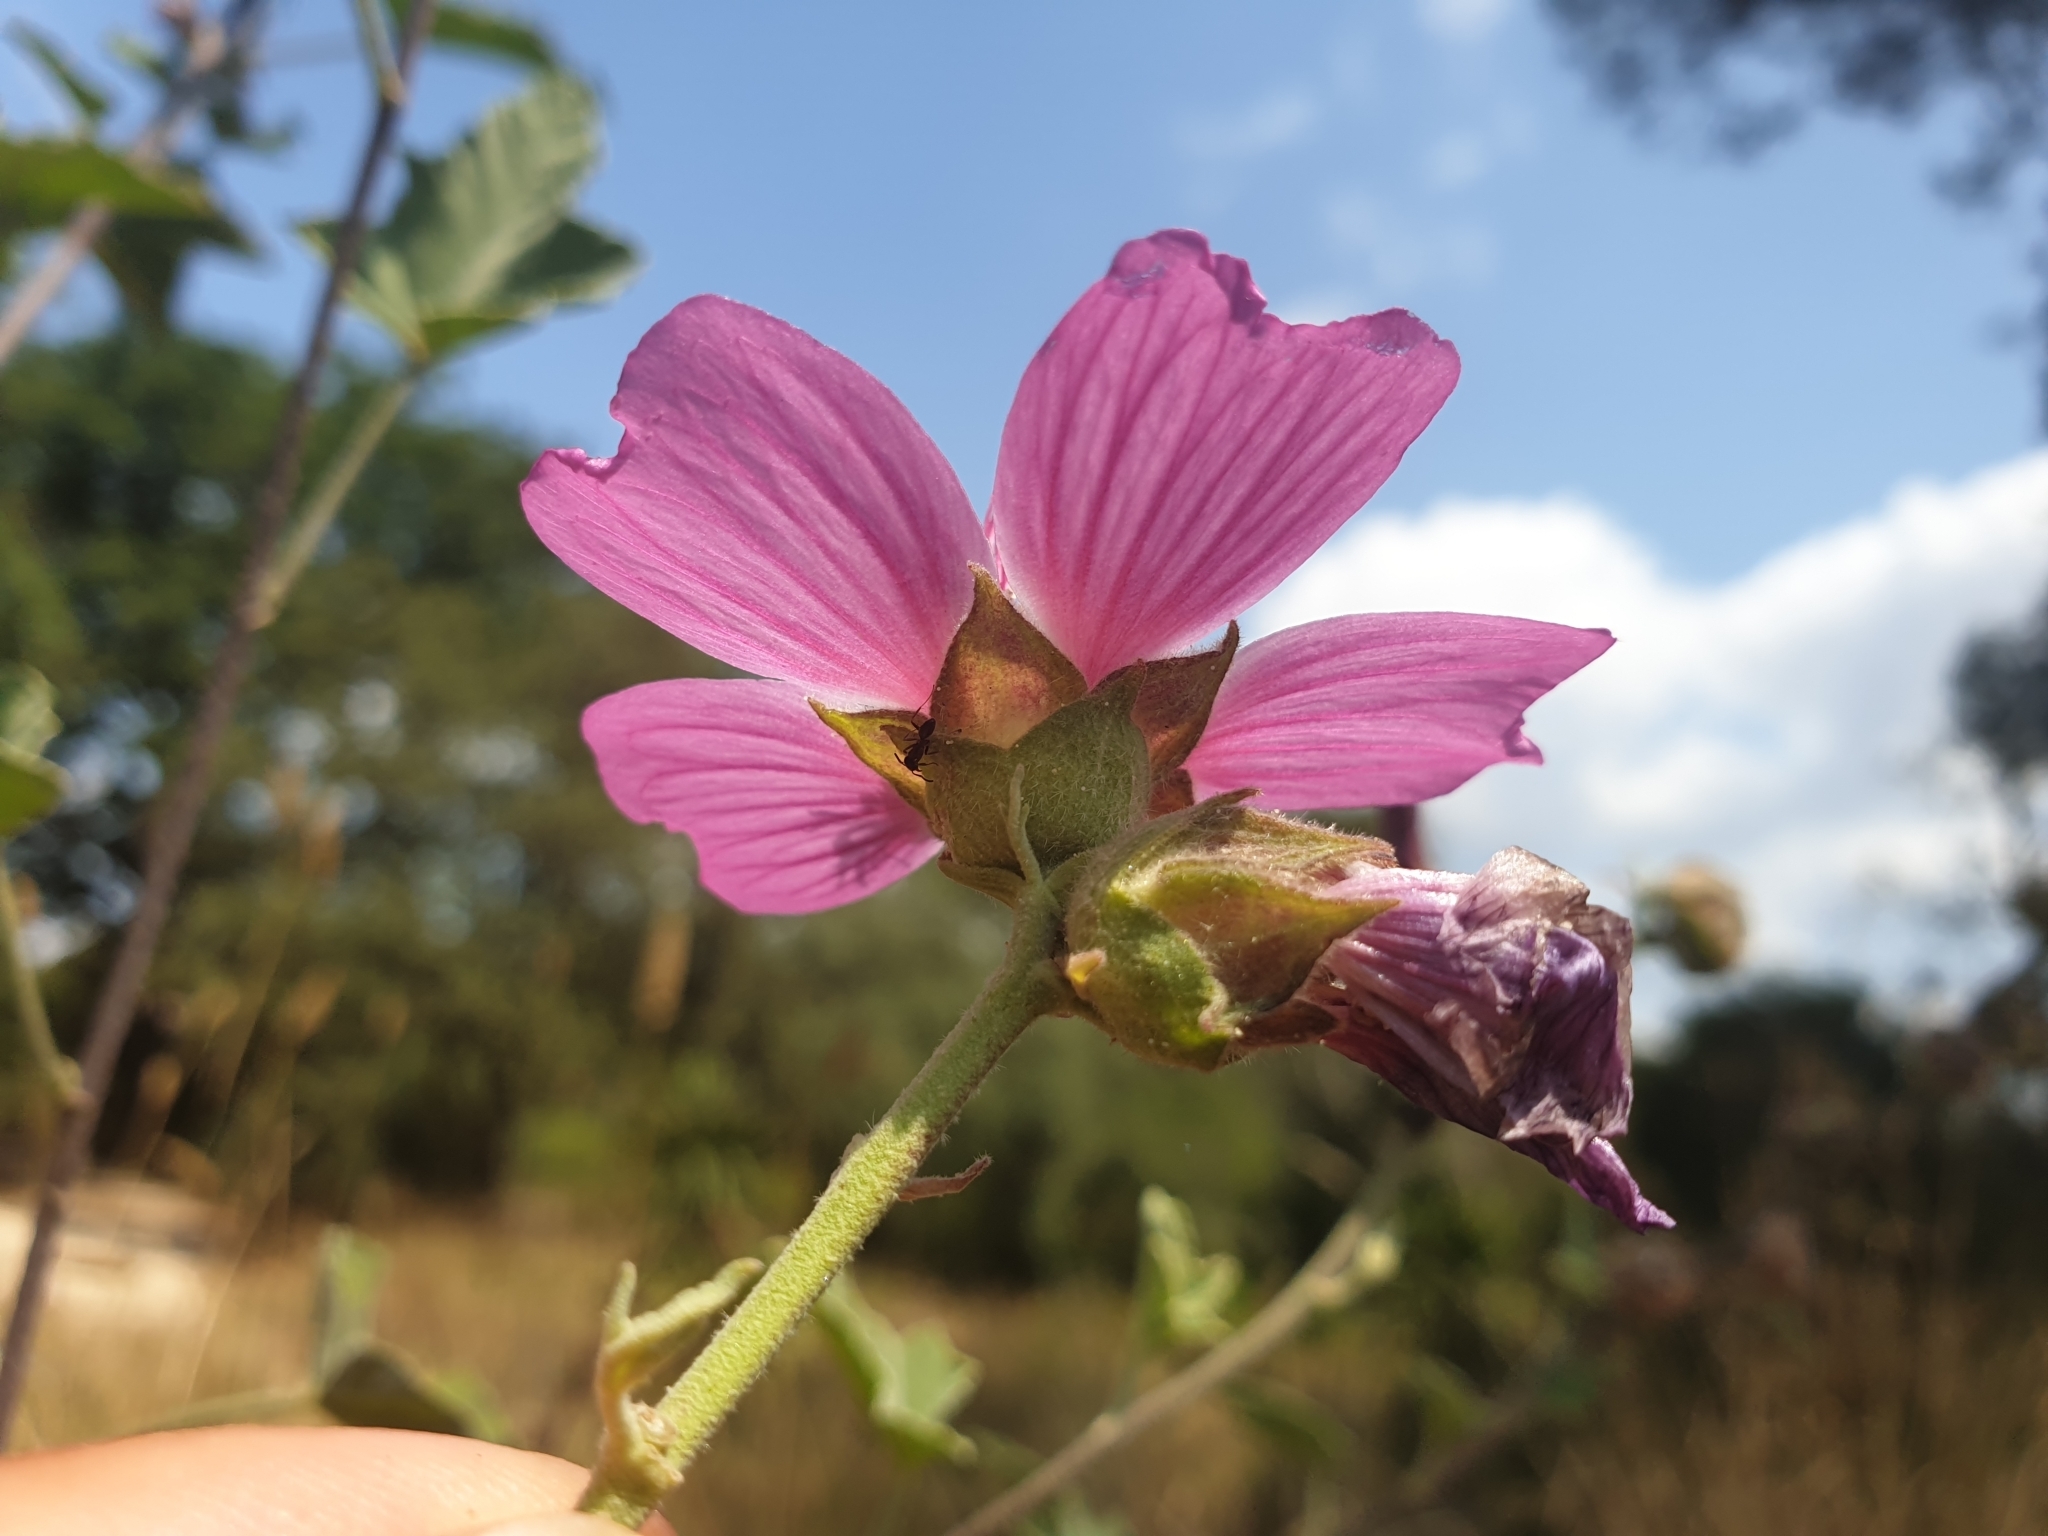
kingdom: Plantae
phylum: Tracheophyta
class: Magnoliopsida
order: Malvales
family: Malvaceae
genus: Malva
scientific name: Malva olbia
